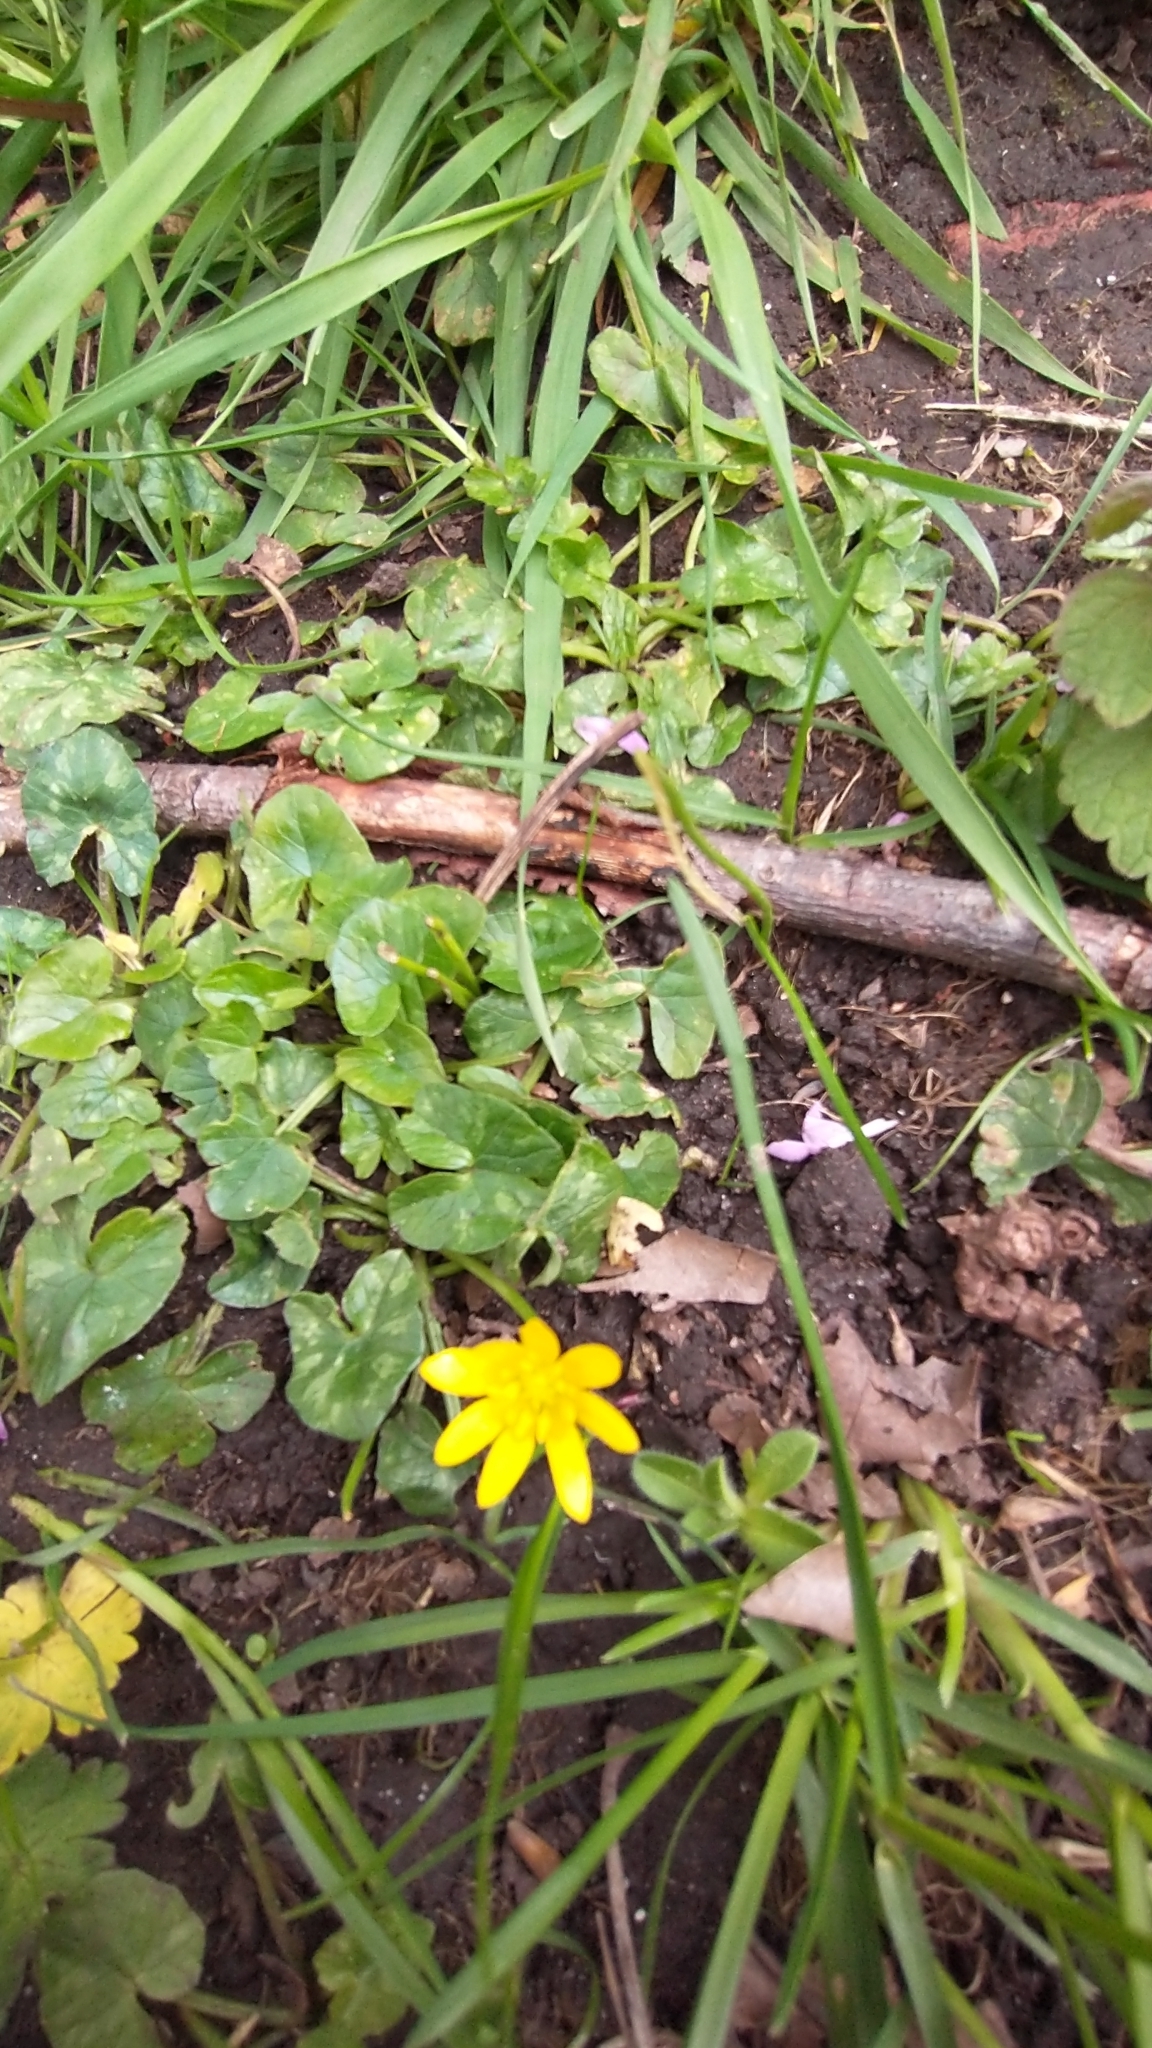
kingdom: Plantae
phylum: Tracheophyta
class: Magnoliopsida
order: Ranunculales
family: Ranunculaceae
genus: Ficaria
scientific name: Ficaria verna
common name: Lesser celandine
